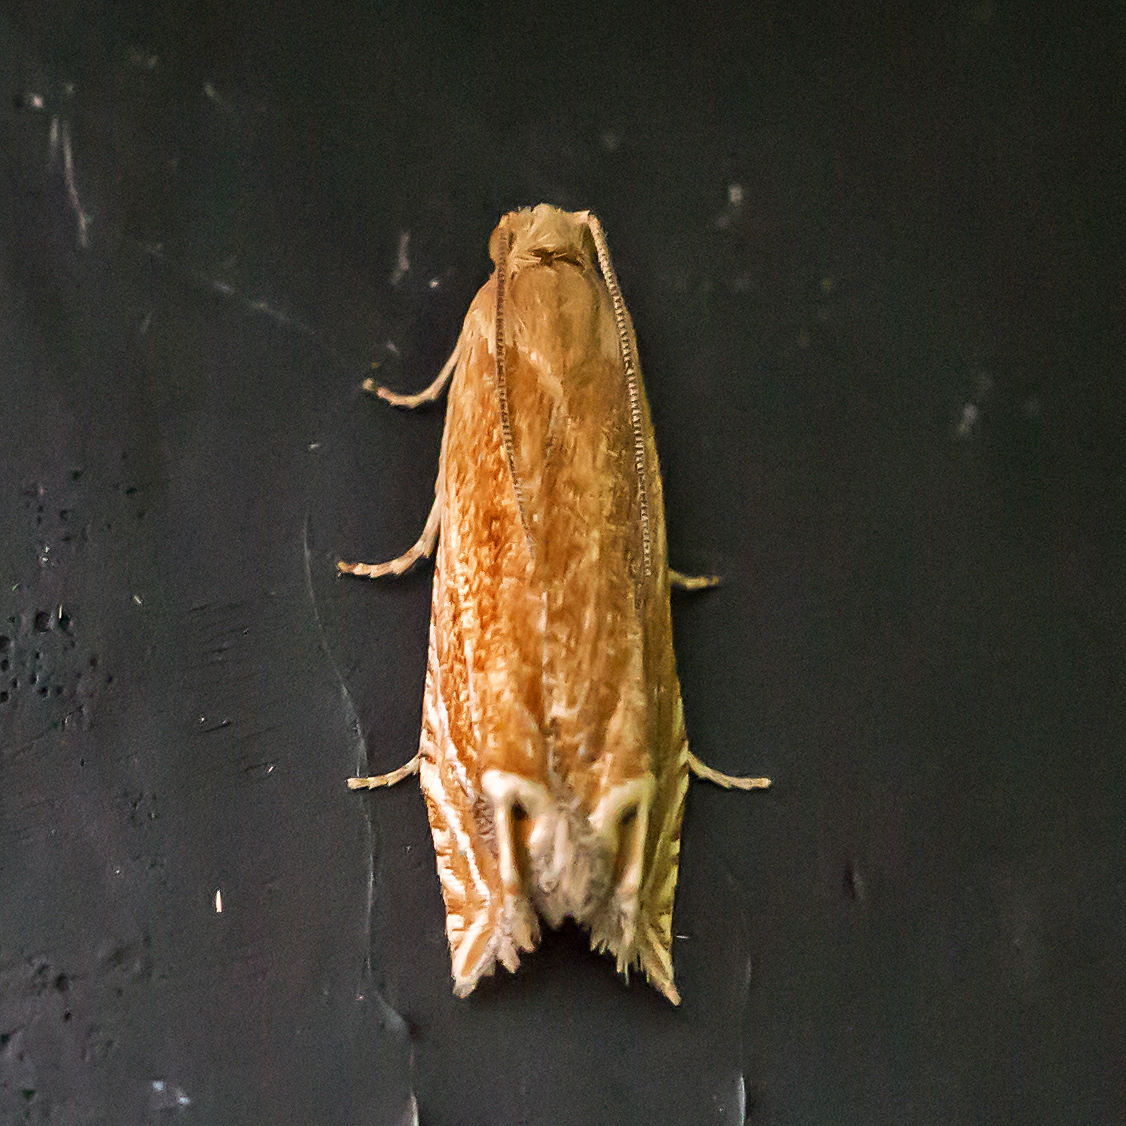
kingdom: Animalia
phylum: Arthropoda
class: Insecta
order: Lepidoptera
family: Tortricidae
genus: Pelochrista
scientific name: Pelochrista cataclystiana
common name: Goldenrod pelochrista moth
